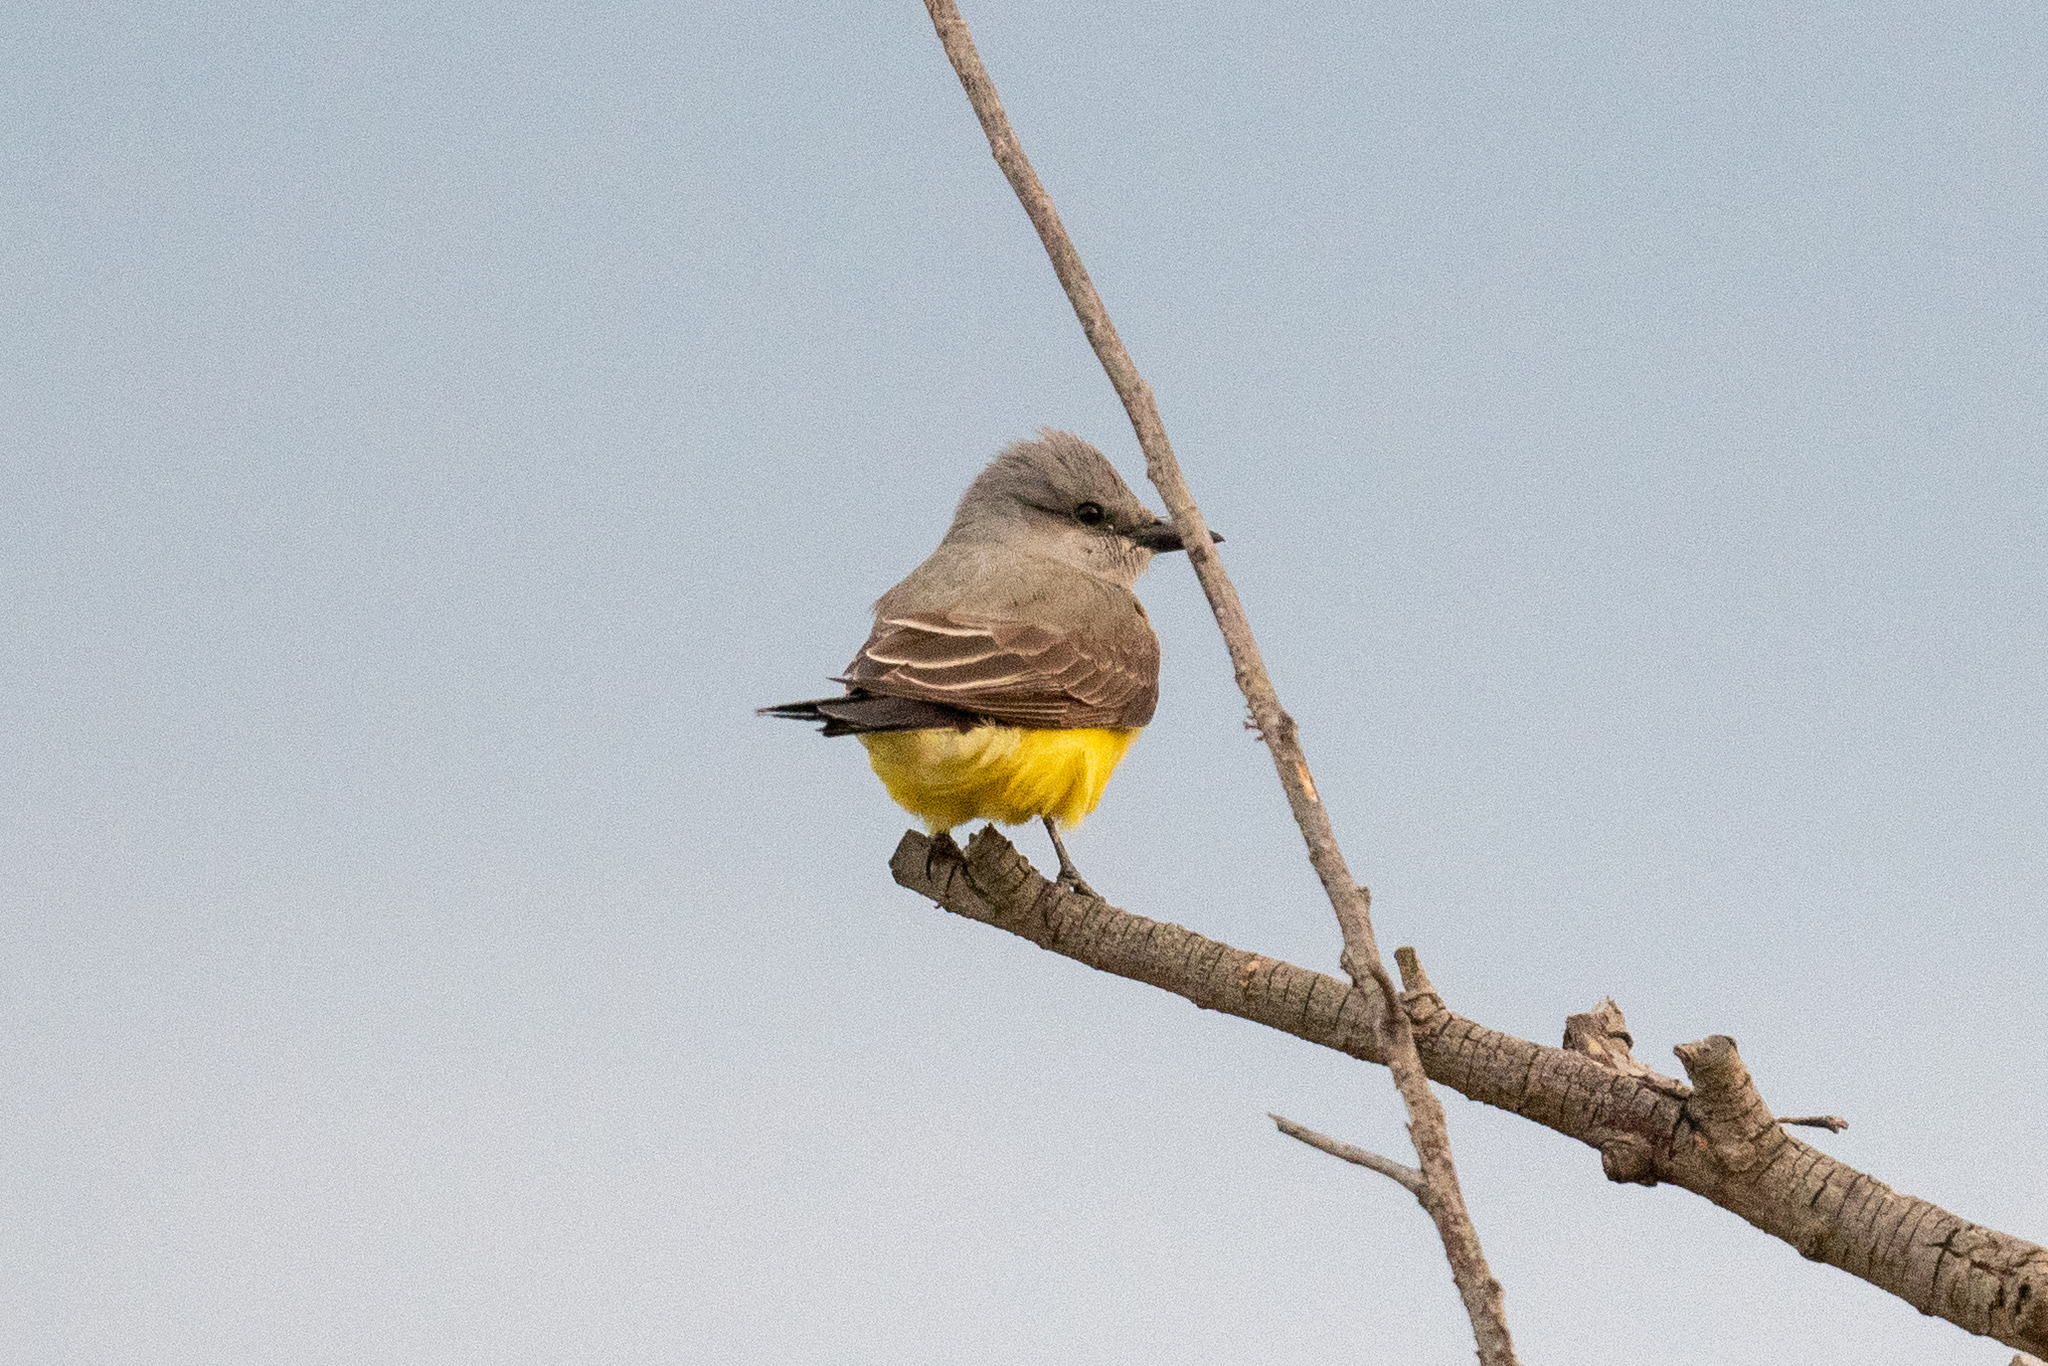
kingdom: Animalia
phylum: Chordata
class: Aves
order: Passeriformes
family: Tyrannidae
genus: Tyrannus
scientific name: Tyrannus verticalis
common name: Western kingbird
